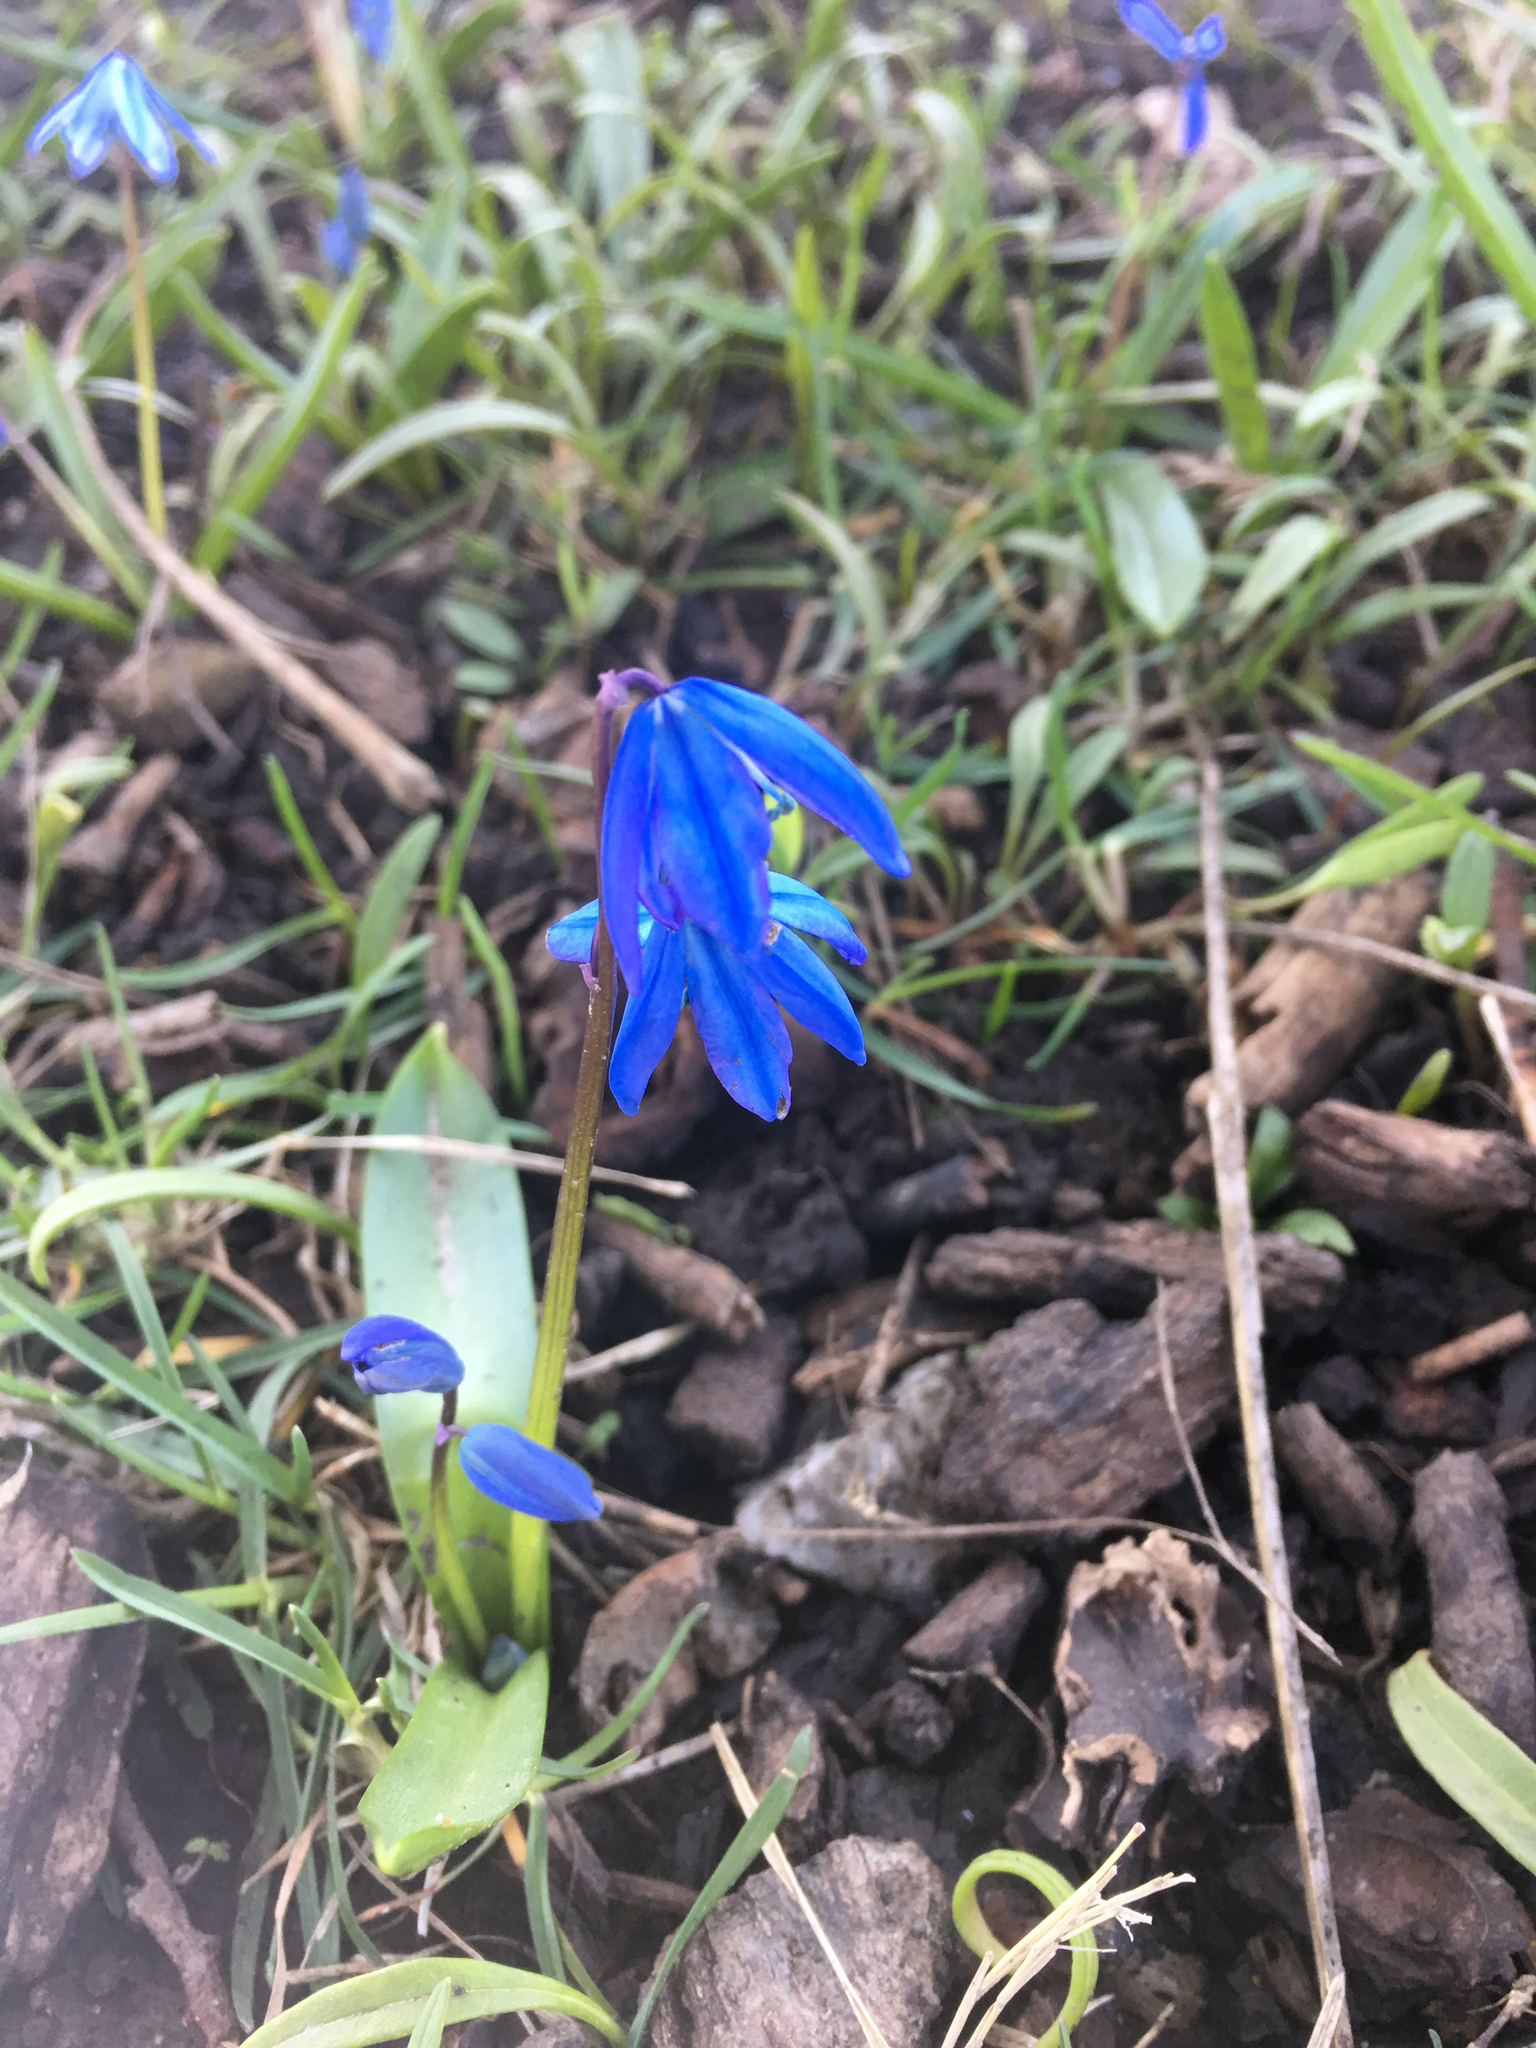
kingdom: Plantae
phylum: Tracheophyta
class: Liliopsida
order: Asparagales
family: Asparagaceae
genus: Scilla
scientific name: Scilla siberica
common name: Siberian squill
